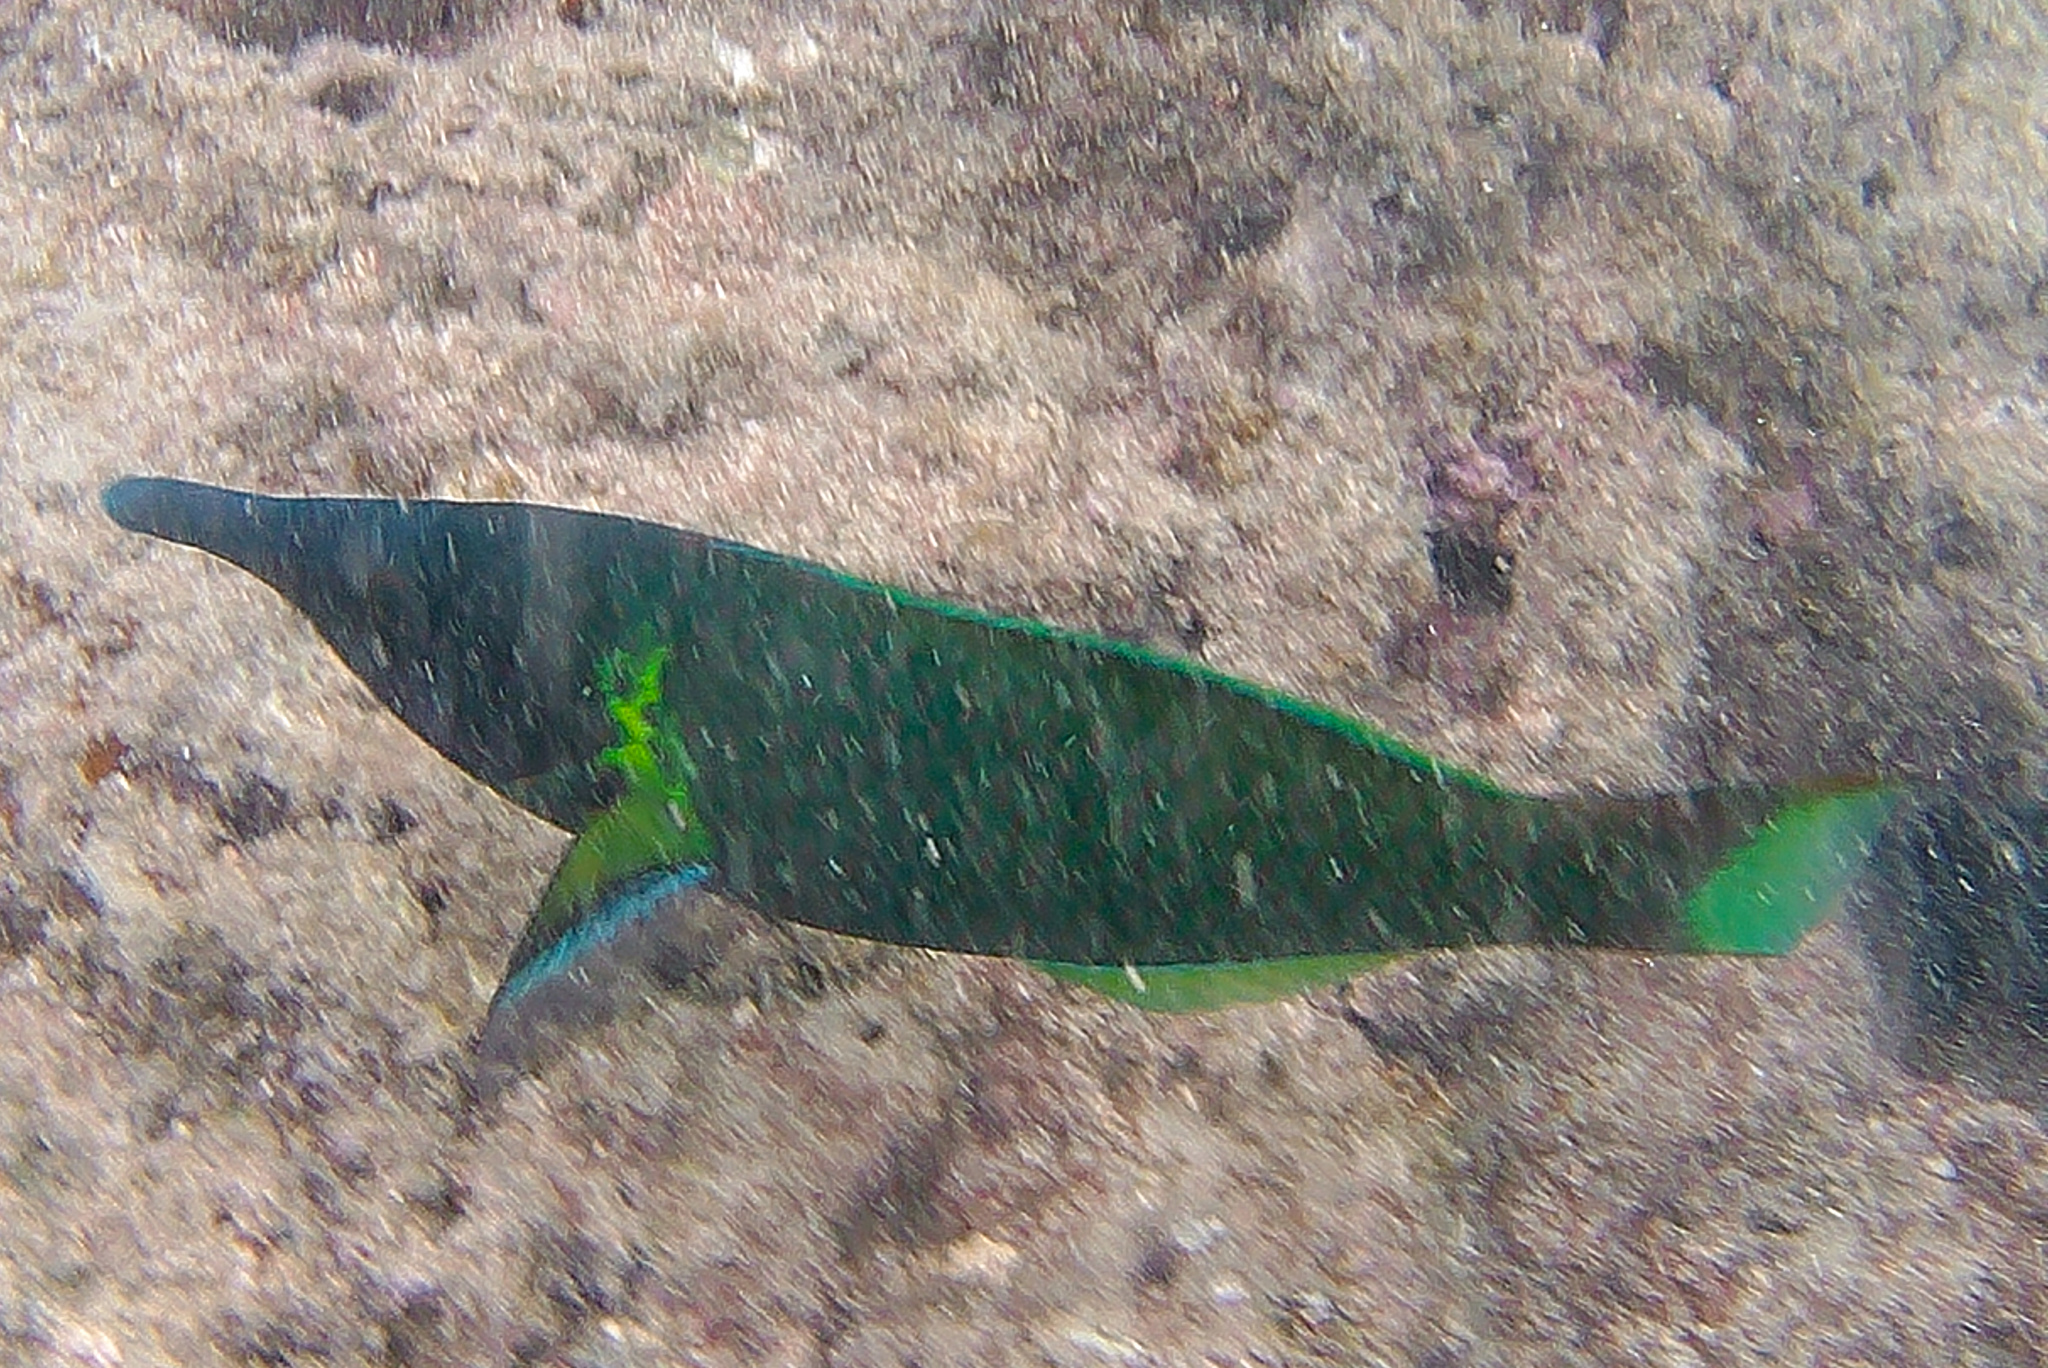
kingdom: Animalia
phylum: Chordata
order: Perciformes
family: Labridae
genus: Gomphosus
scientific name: Gomphosus varius
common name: Bird wrasse
